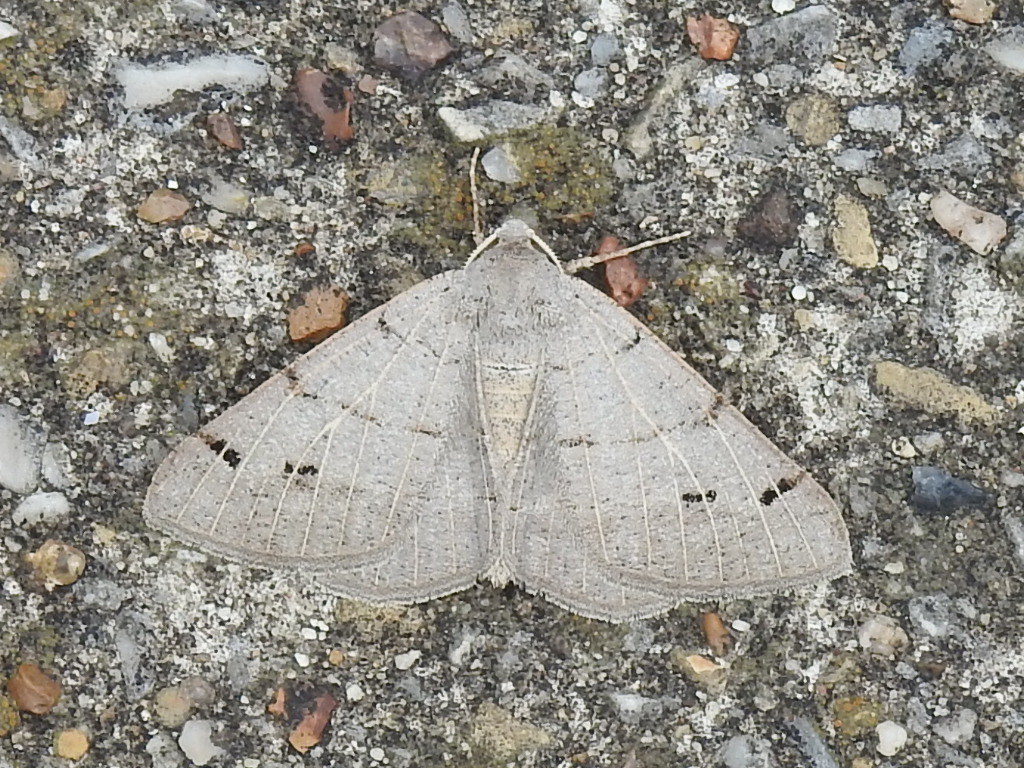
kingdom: Animalia
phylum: Arthropoda
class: Insecta
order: Lepidoptera
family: Geometridae
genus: Isturgia
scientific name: Isturgia dislocaria
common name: Pale-viened enconista
